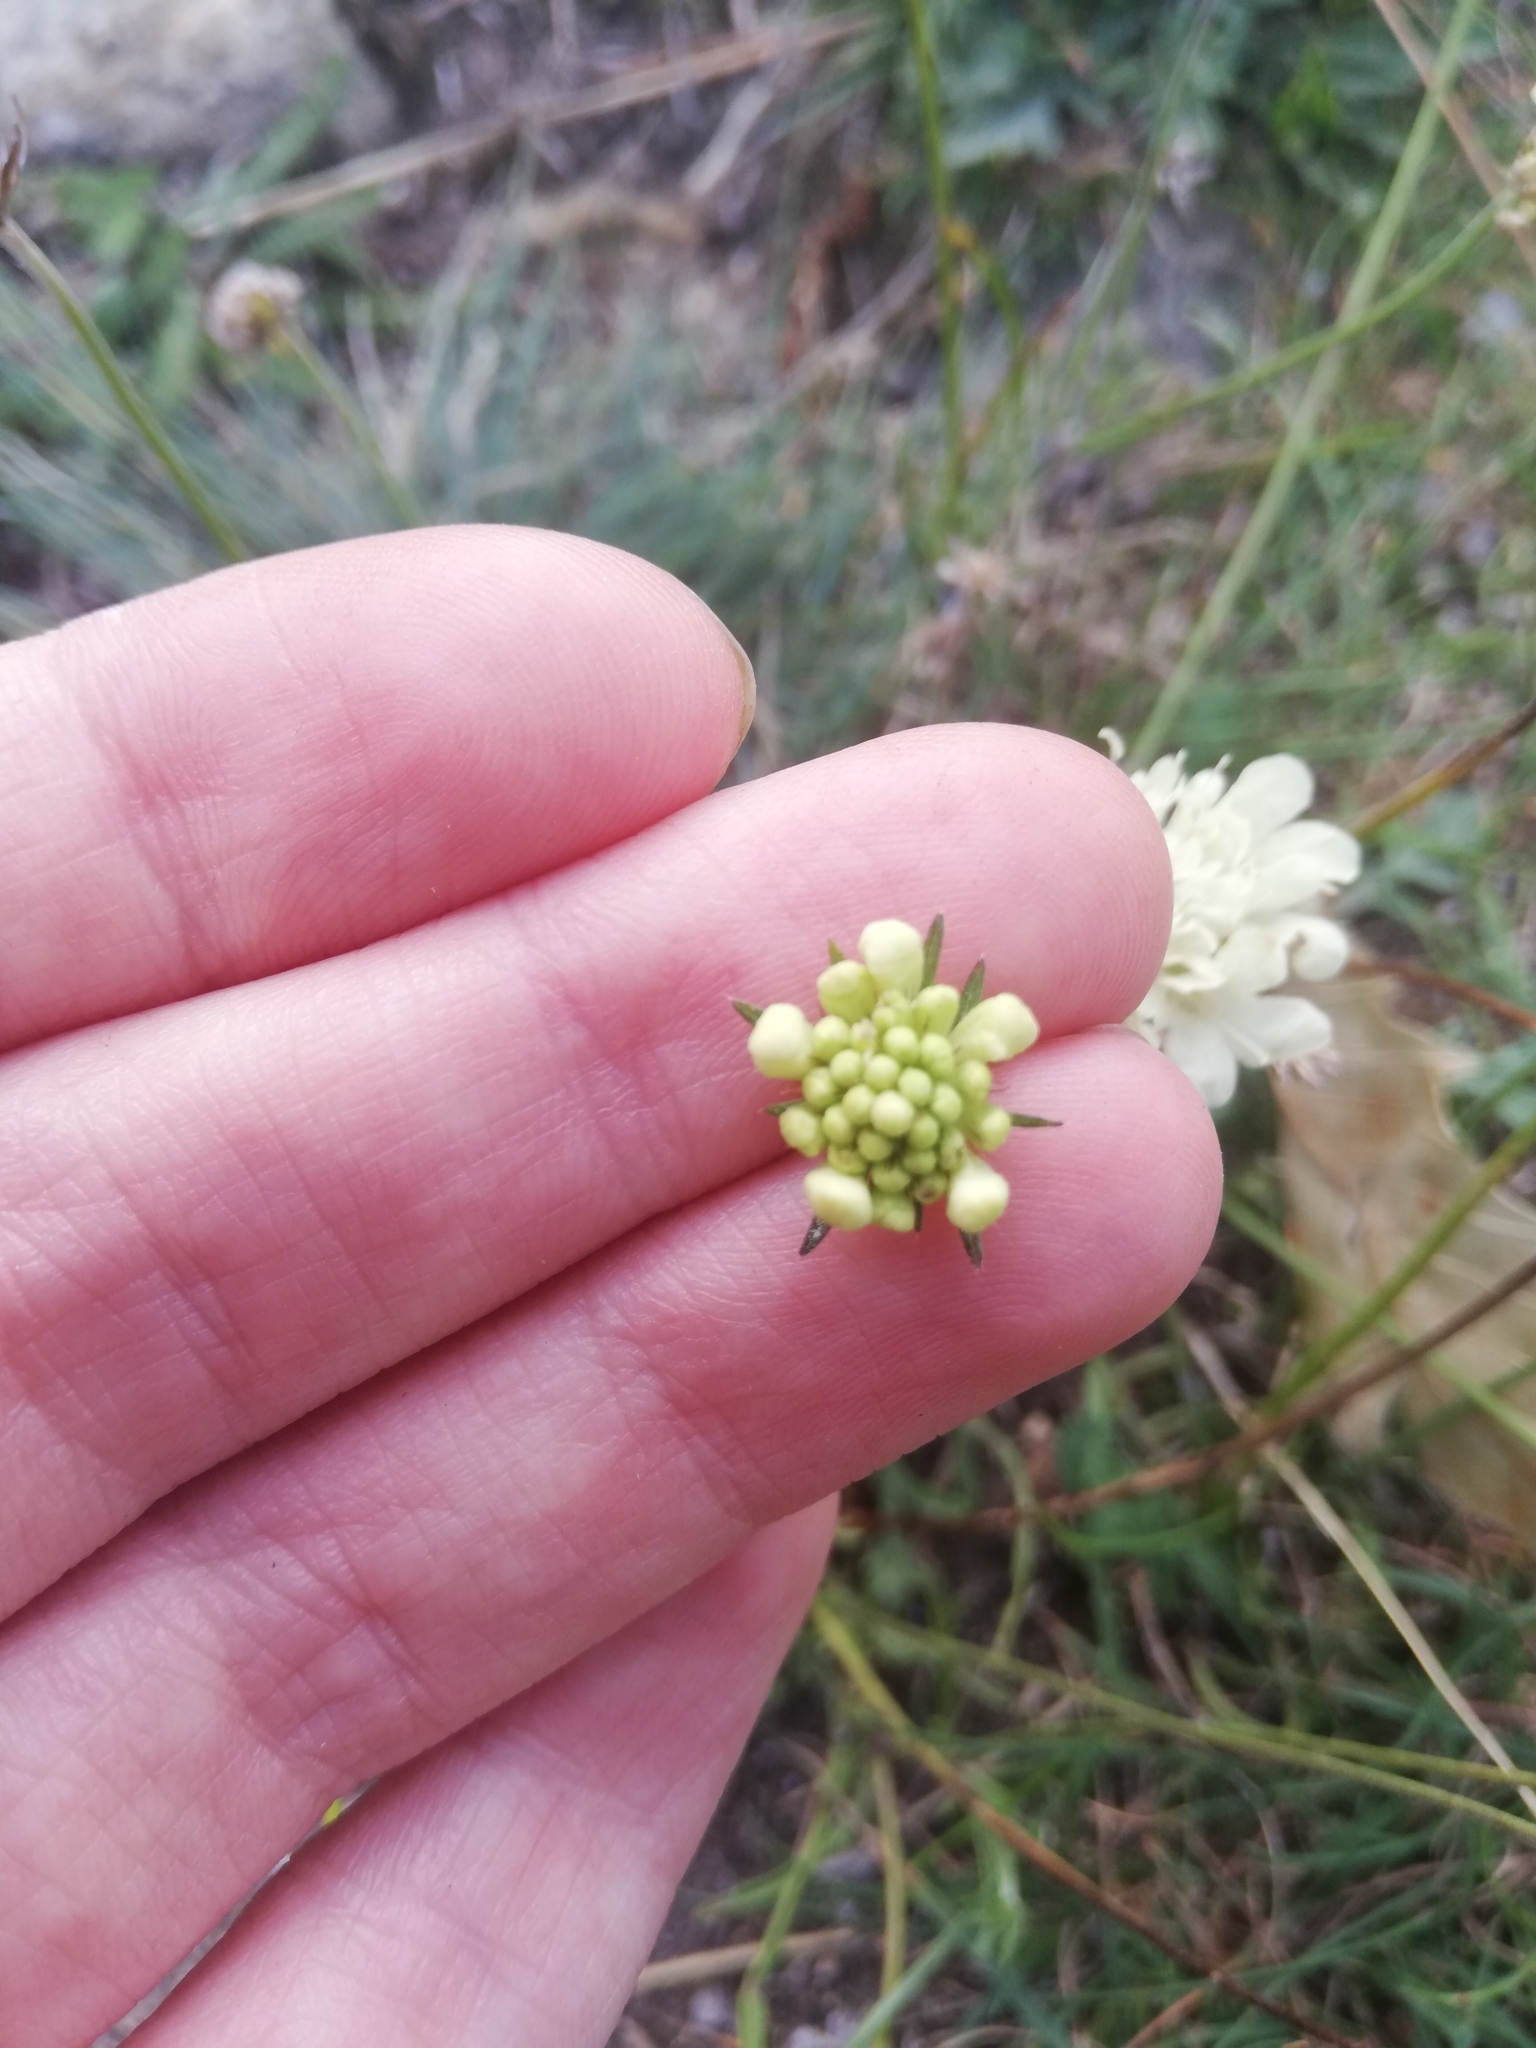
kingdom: Plantae
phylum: Tracheophyta
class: Magnoliopsida
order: Dipsacales
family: Caprifoliaceae
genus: Scabiosa
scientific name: Scabiosa ochroleuca
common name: Cream pincushions
